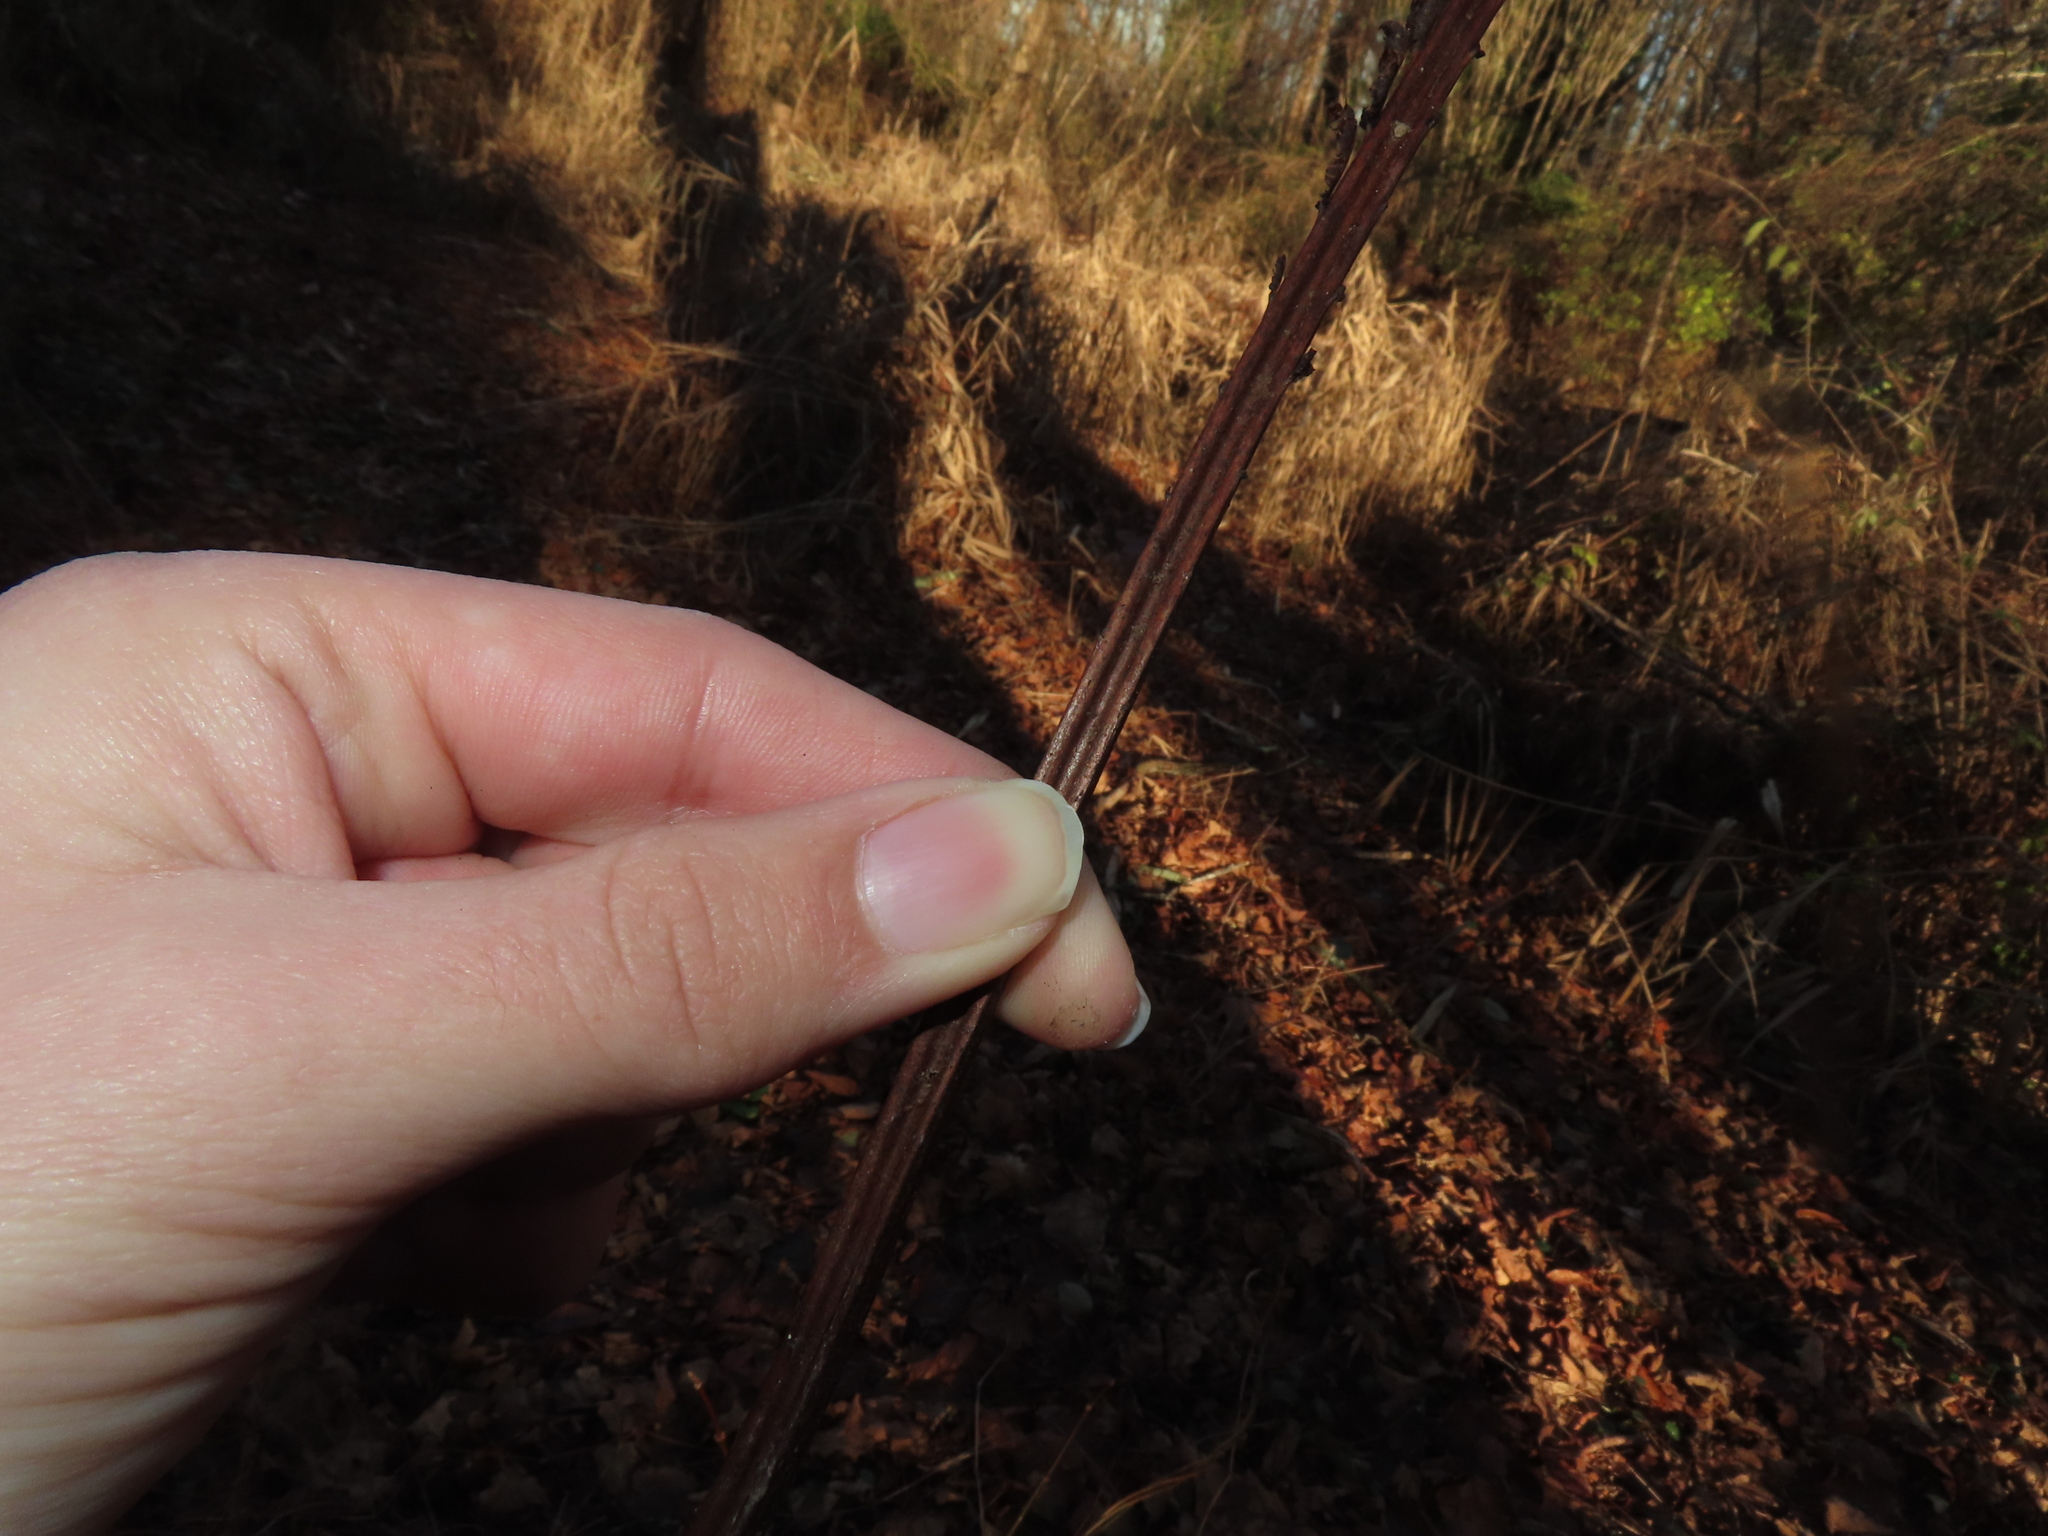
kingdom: Plantae
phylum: Tracheophyta
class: Polypodiopsida
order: Polypodiales
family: Onocleaceae
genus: Matteuccia
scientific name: Matteuccia struthiopteris
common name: Ostrich fern
